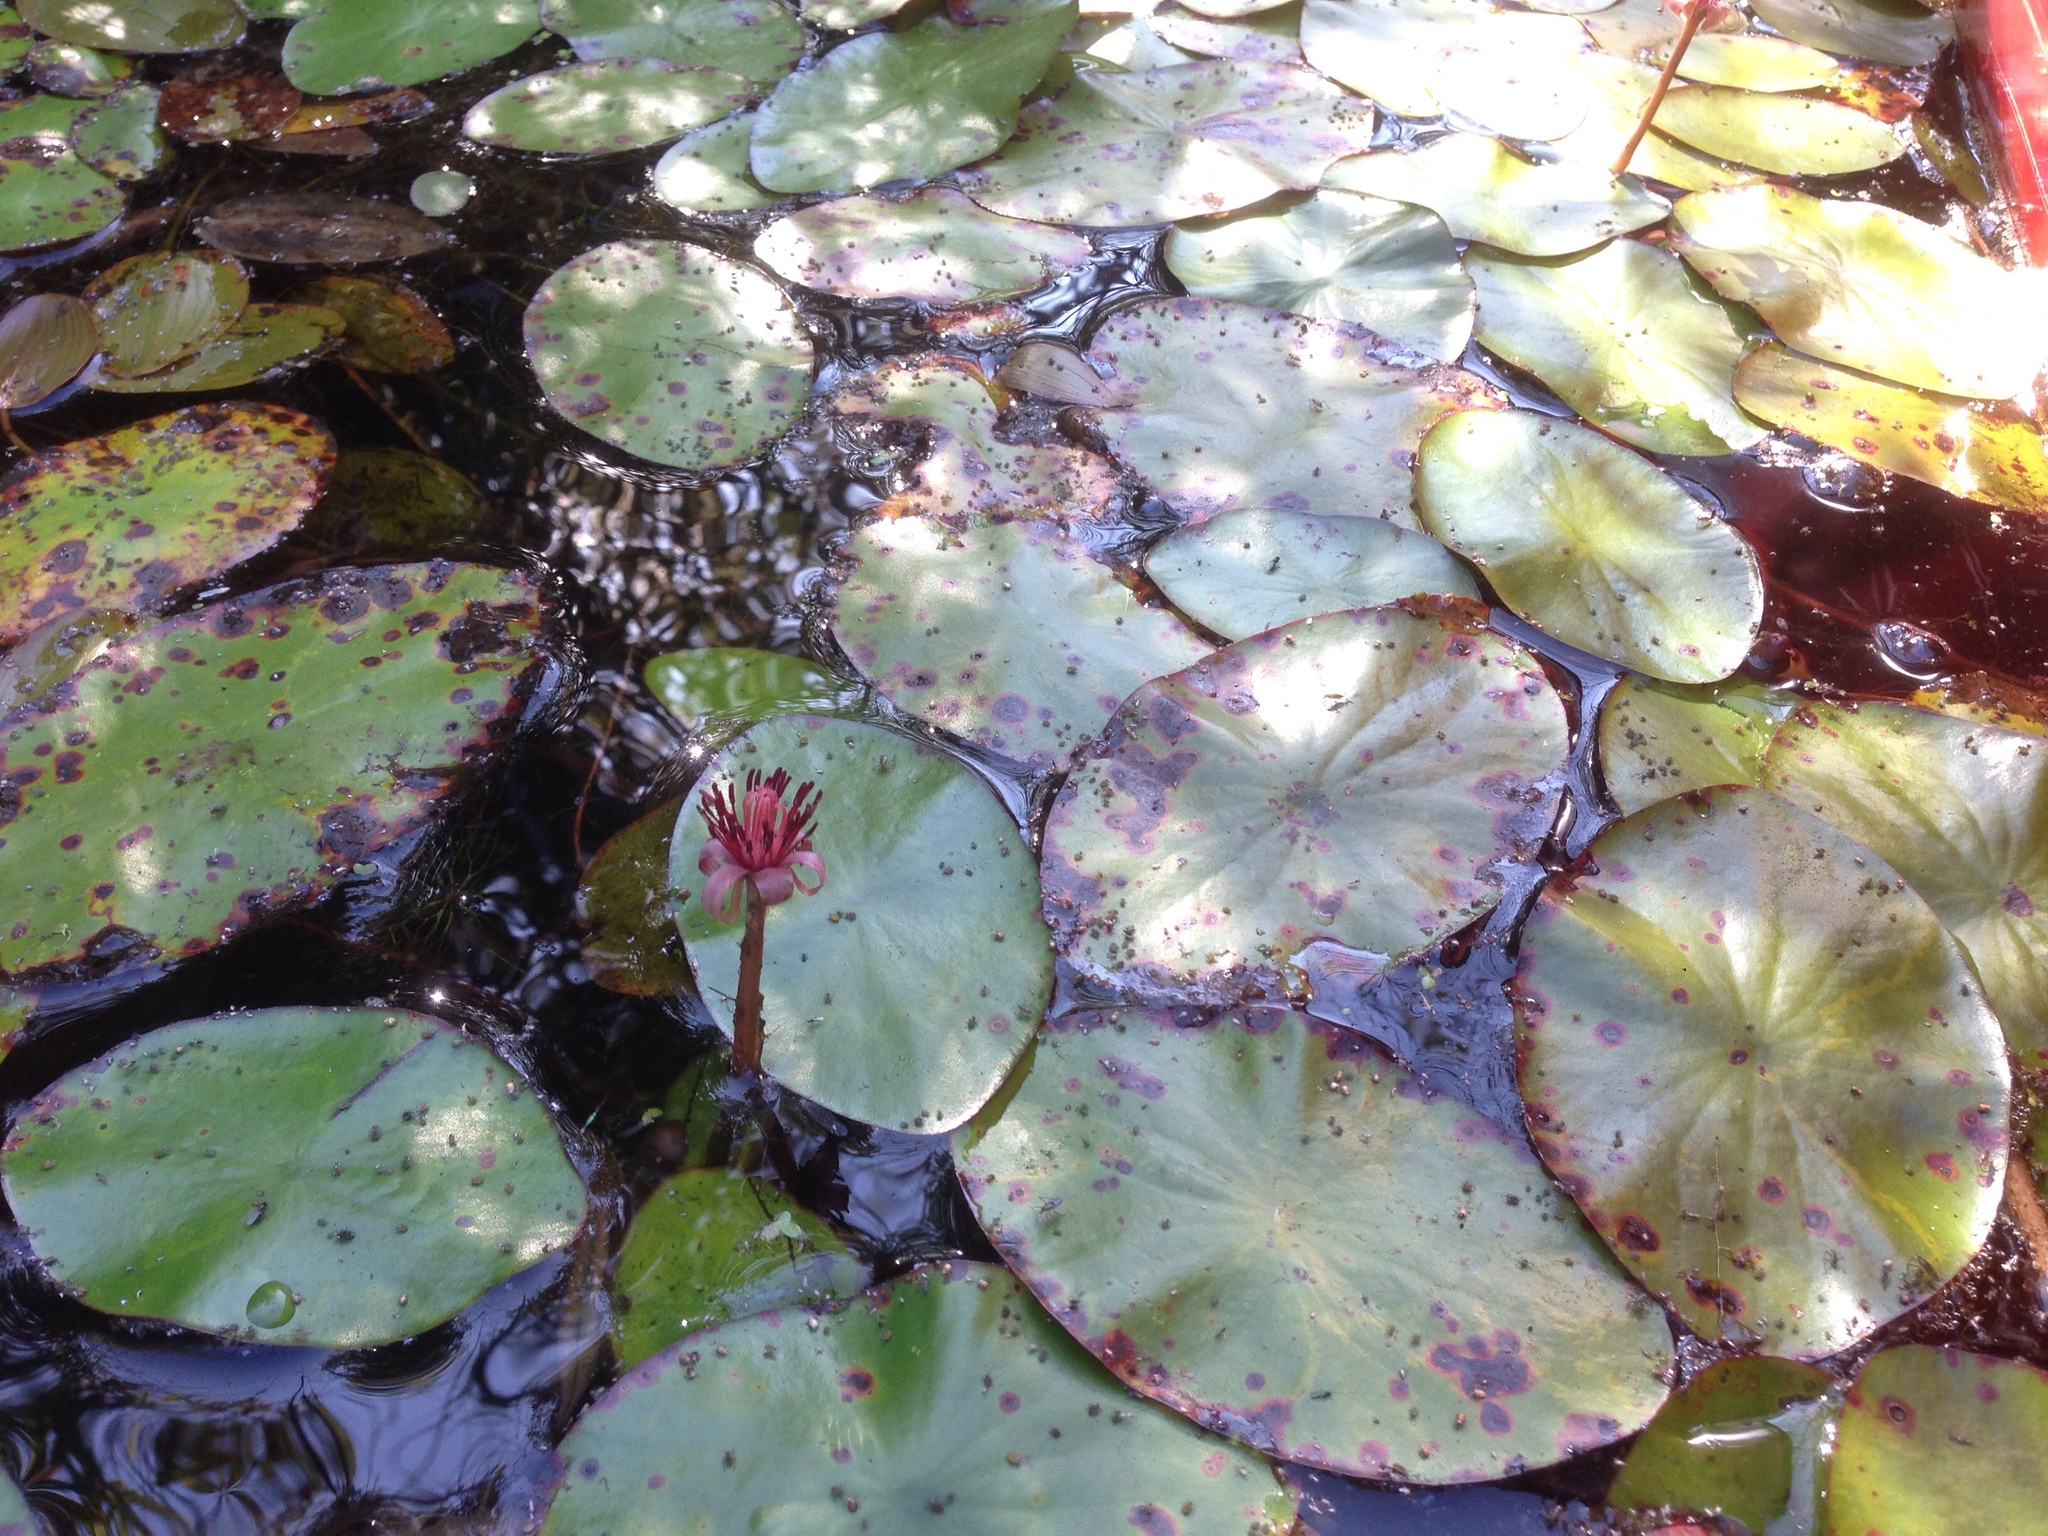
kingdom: Plantae
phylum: Tracheophyta
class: Magnoliopsida
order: Nymphaeales
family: Cabombaceae
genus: Brasenia
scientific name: Brasenia schreberi
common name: Water-shield
